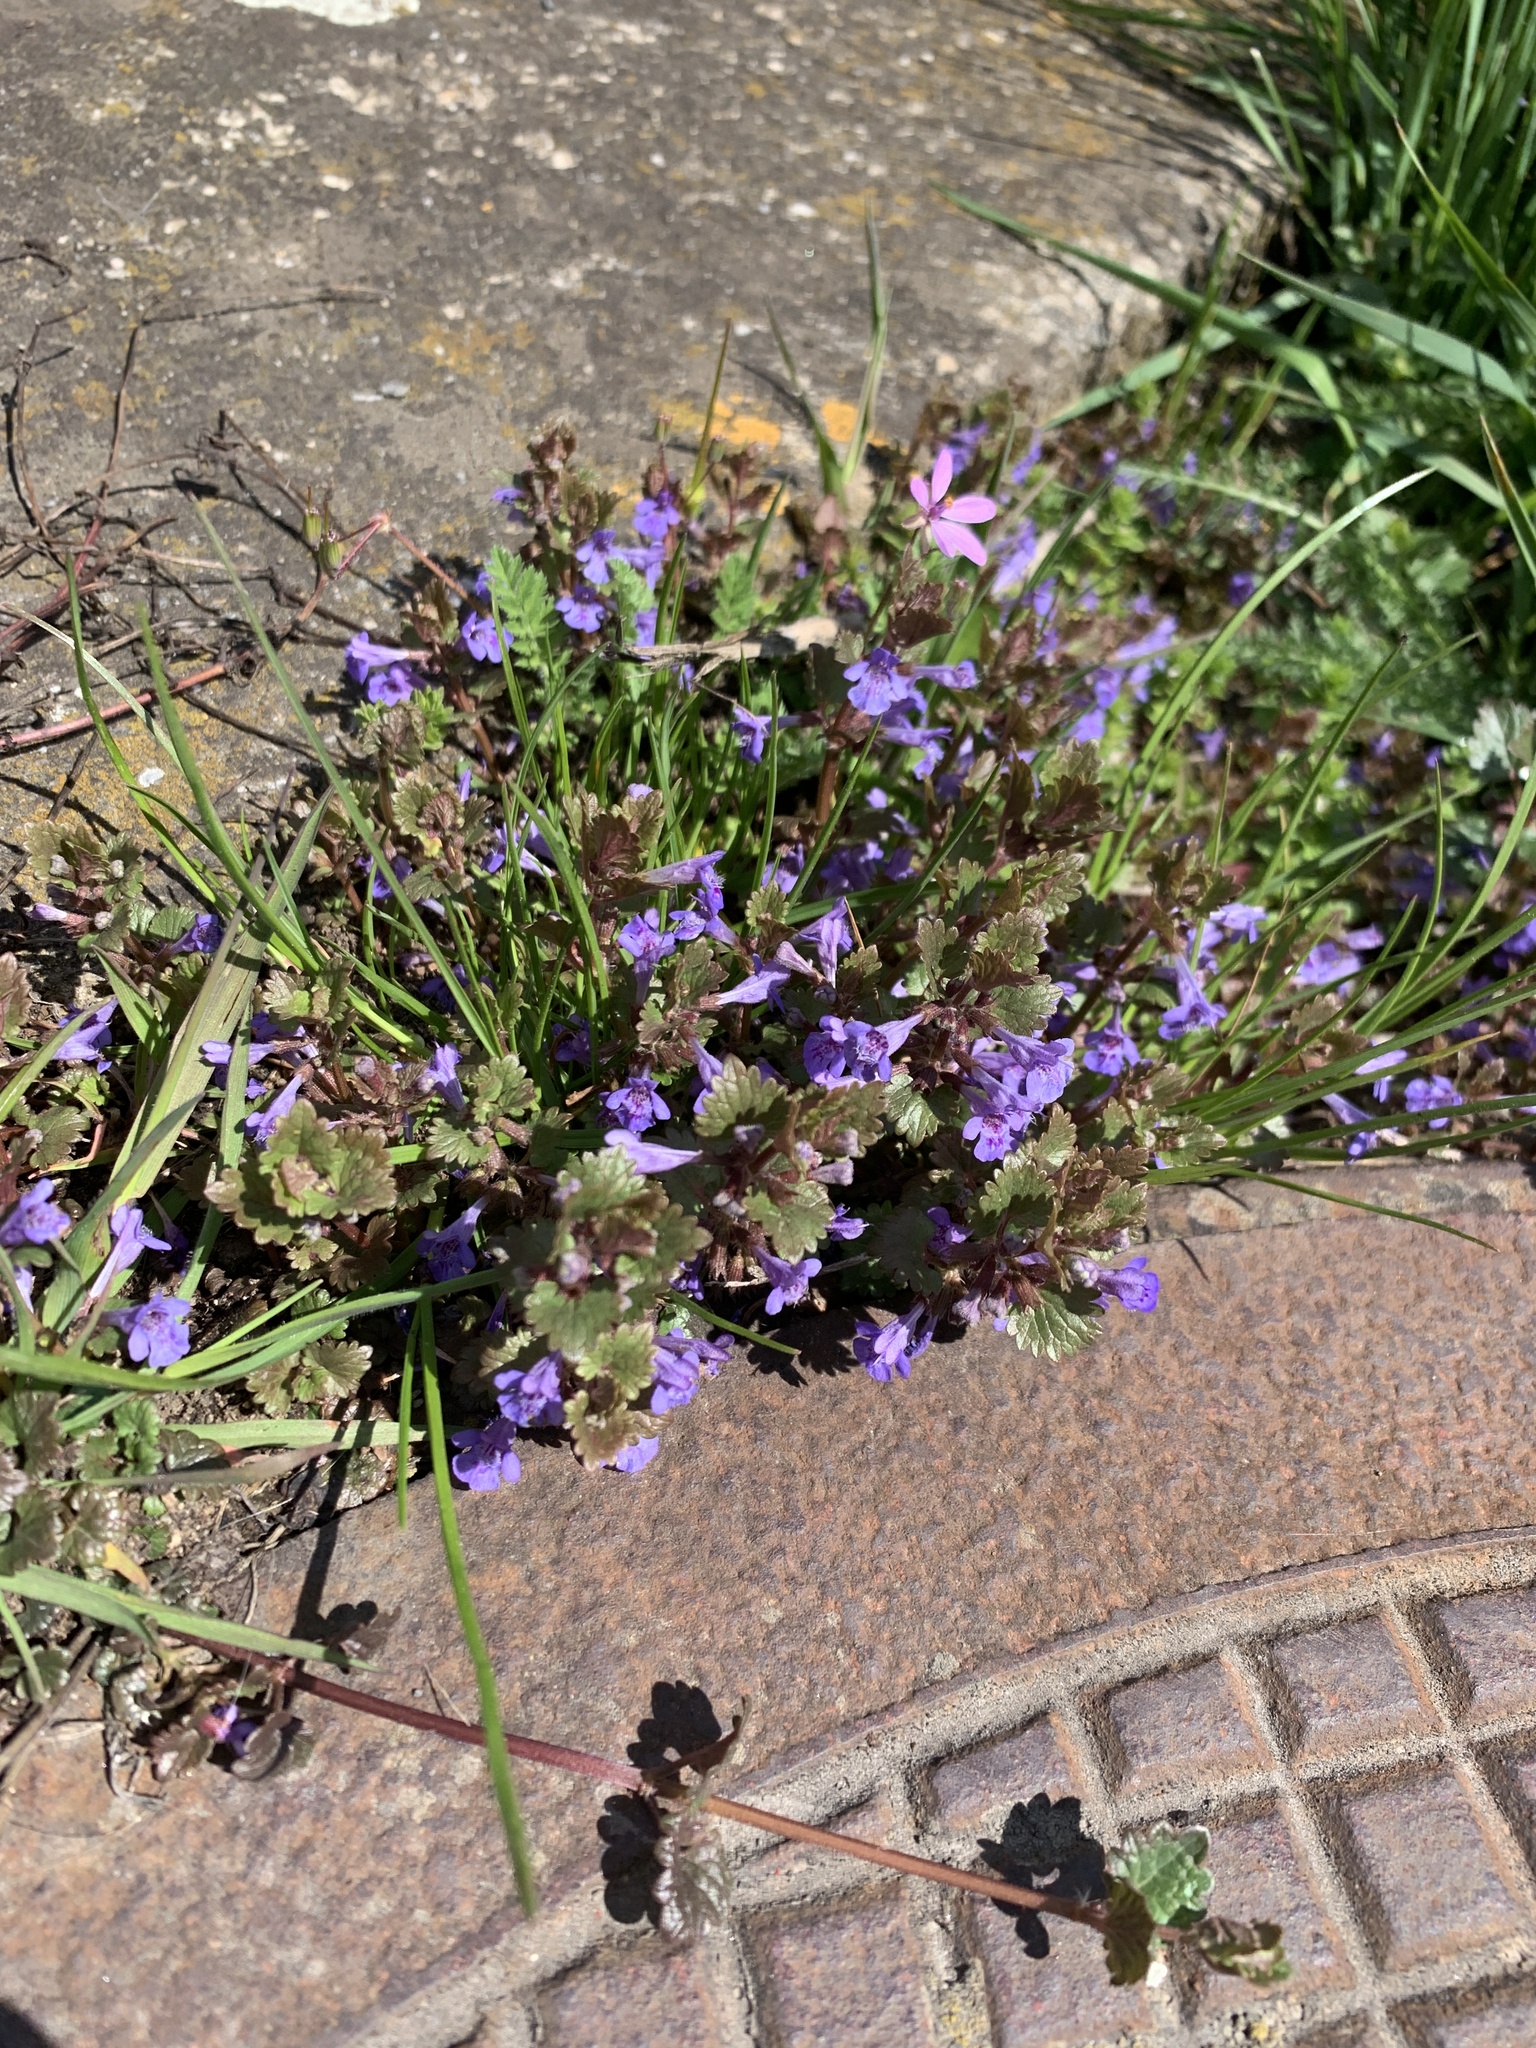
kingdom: Plantae
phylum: Tracheophyta
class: Magnoliopsida
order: Lamiales
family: Lamiaceae
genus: Glechoma
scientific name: Glechoma hederacea
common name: Ground ivy
